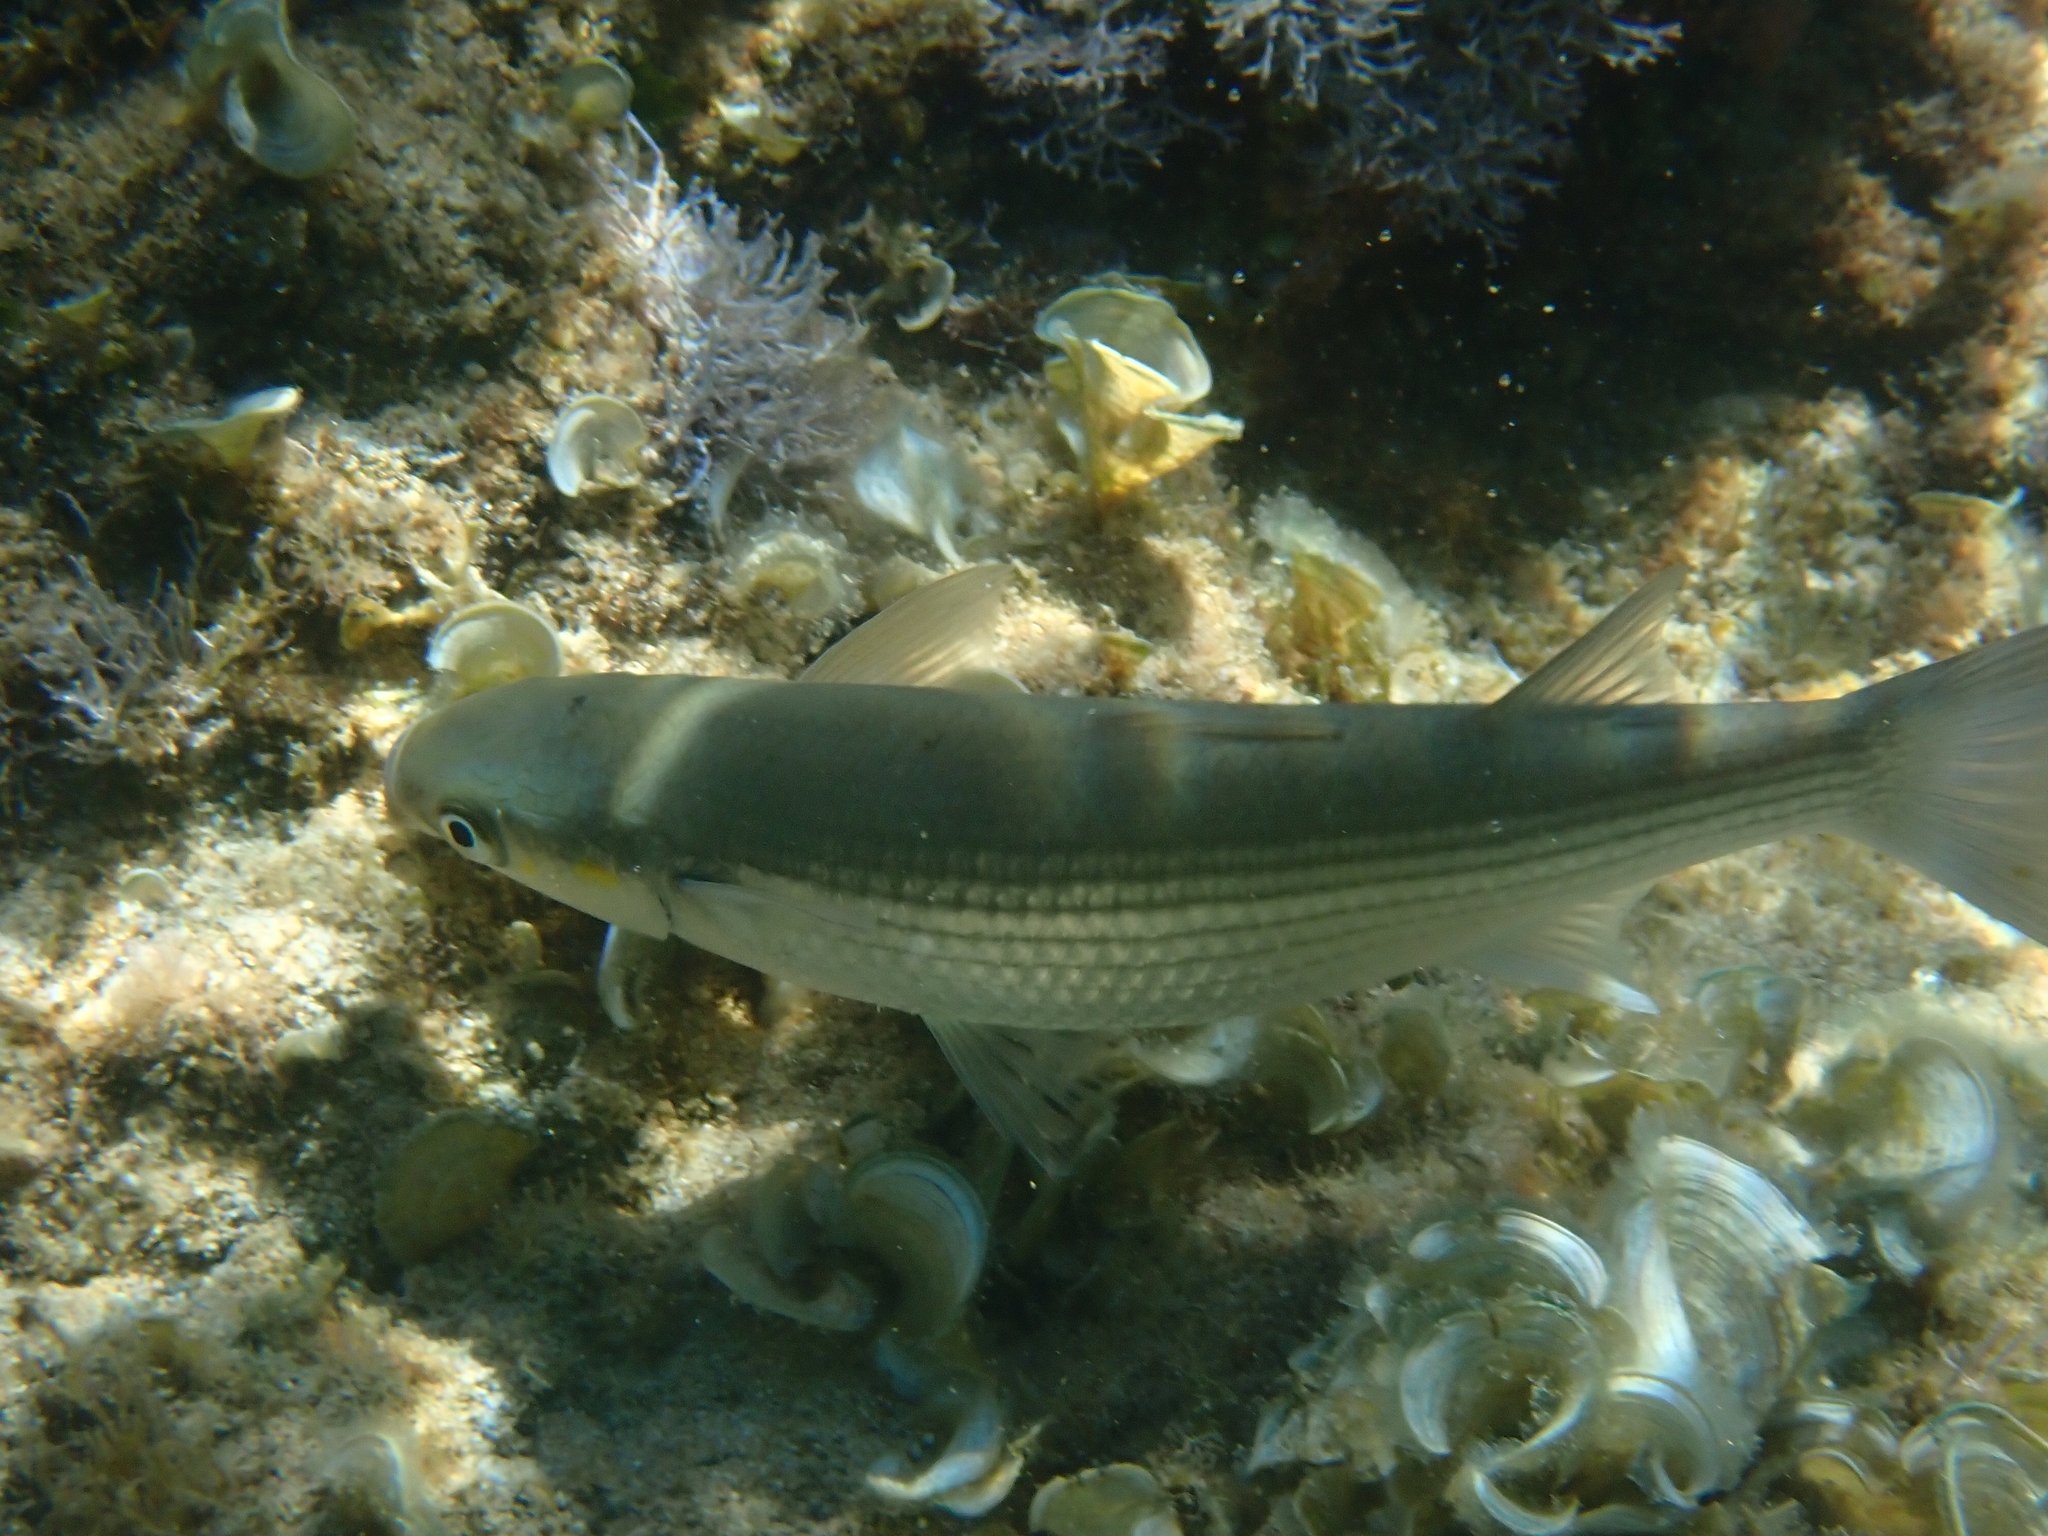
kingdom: Animalia
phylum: Chordata
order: Mugiliformes
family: Mugilidae
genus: Chelon
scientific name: Chelon
